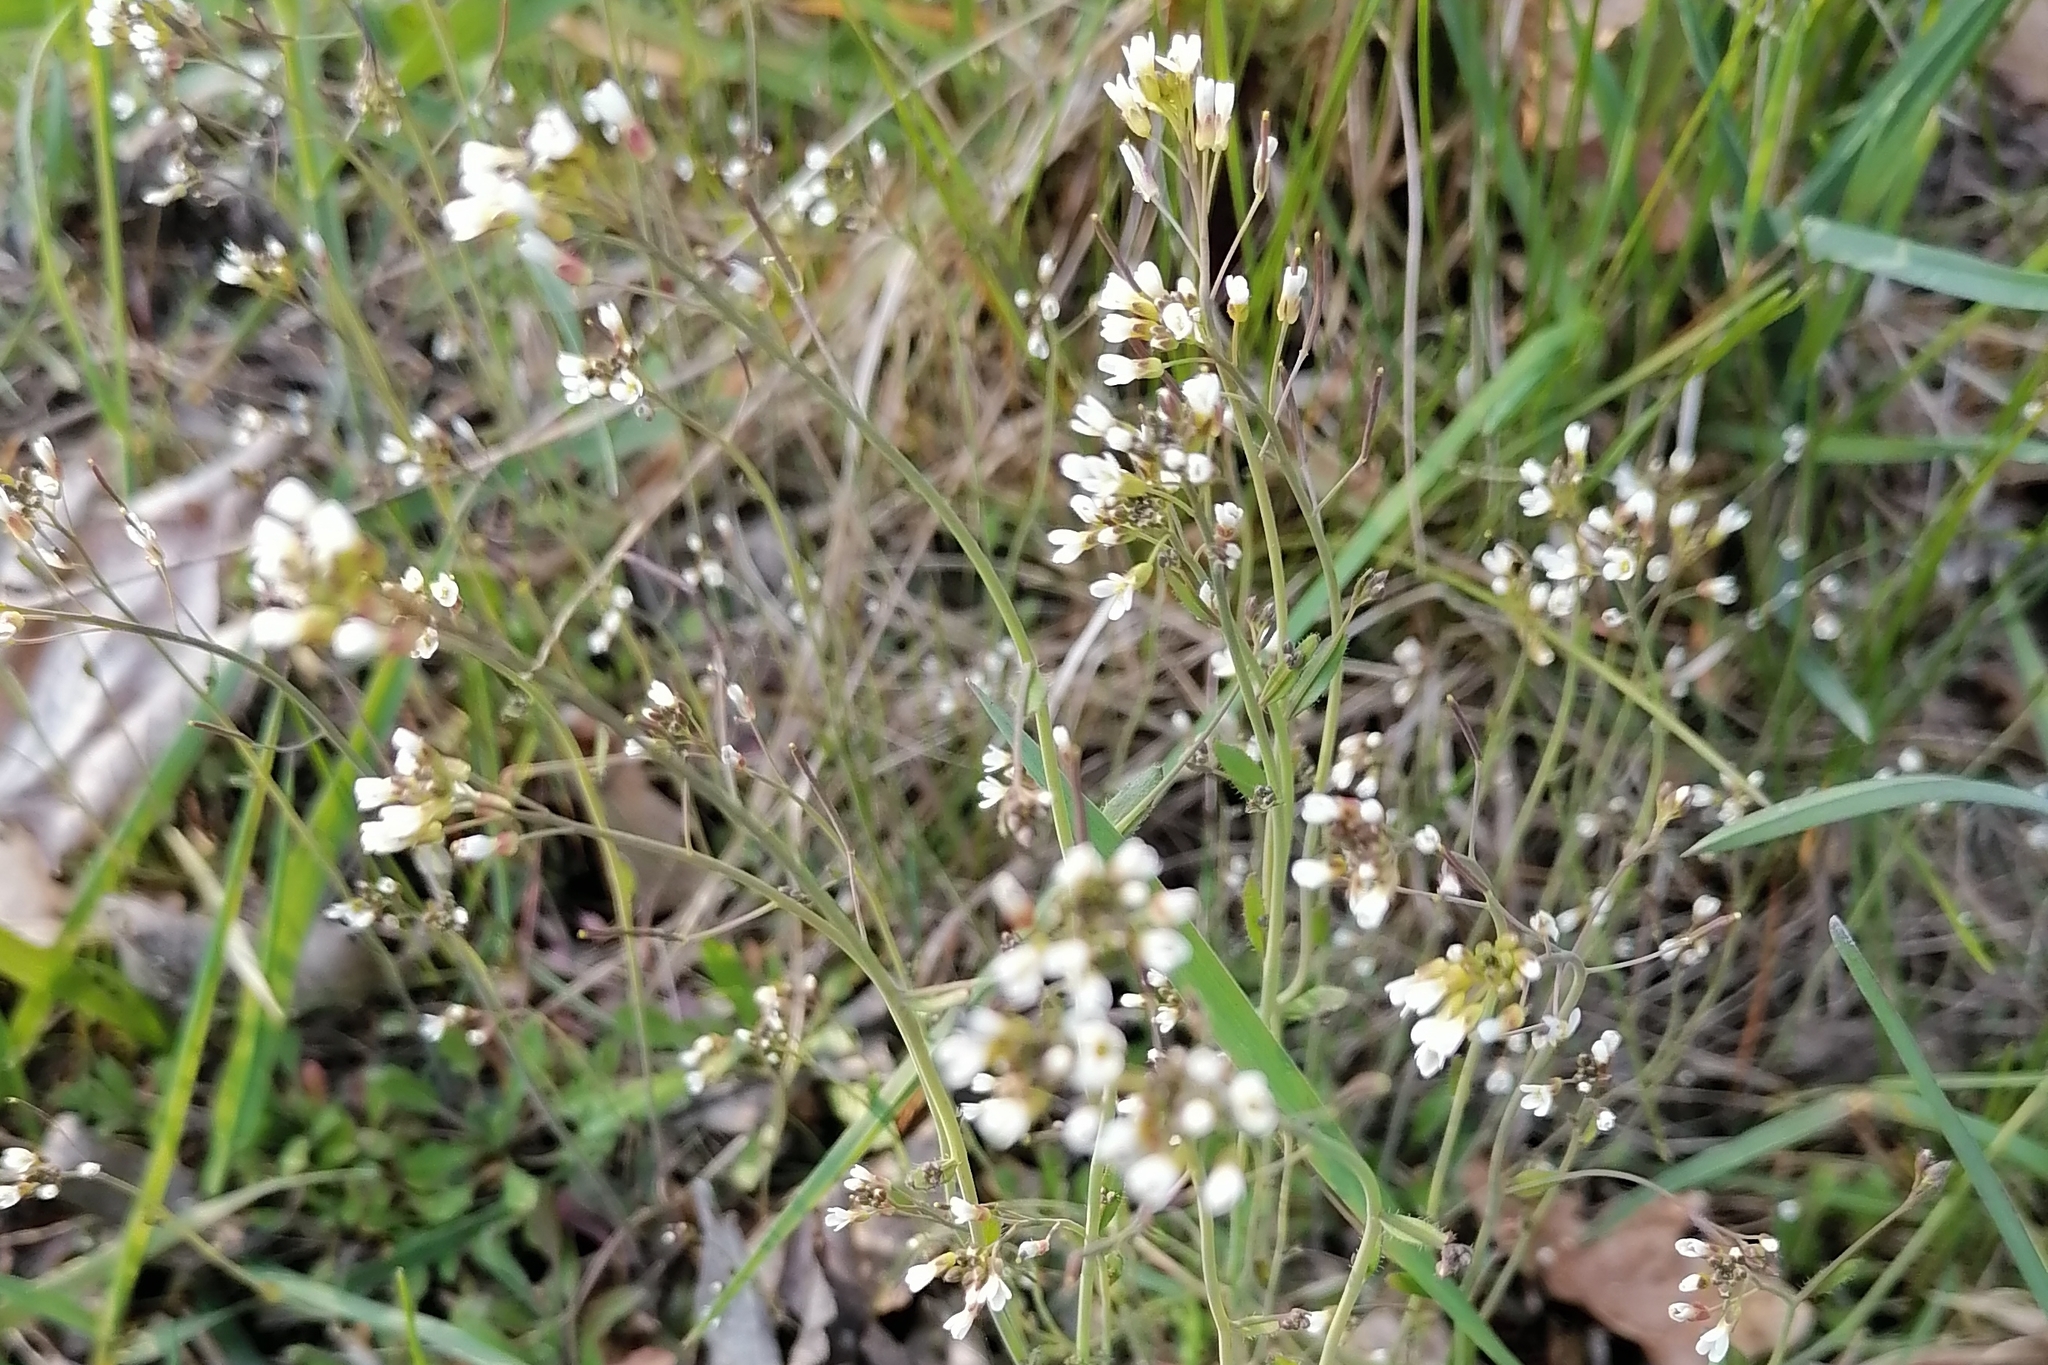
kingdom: Plantae
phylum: Tracheophyta
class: Magnoliopsida
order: Brassicales
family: Brassicaceae
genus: Arabidopsis
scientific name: Arabidopsis thaliana
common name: Thale cress
